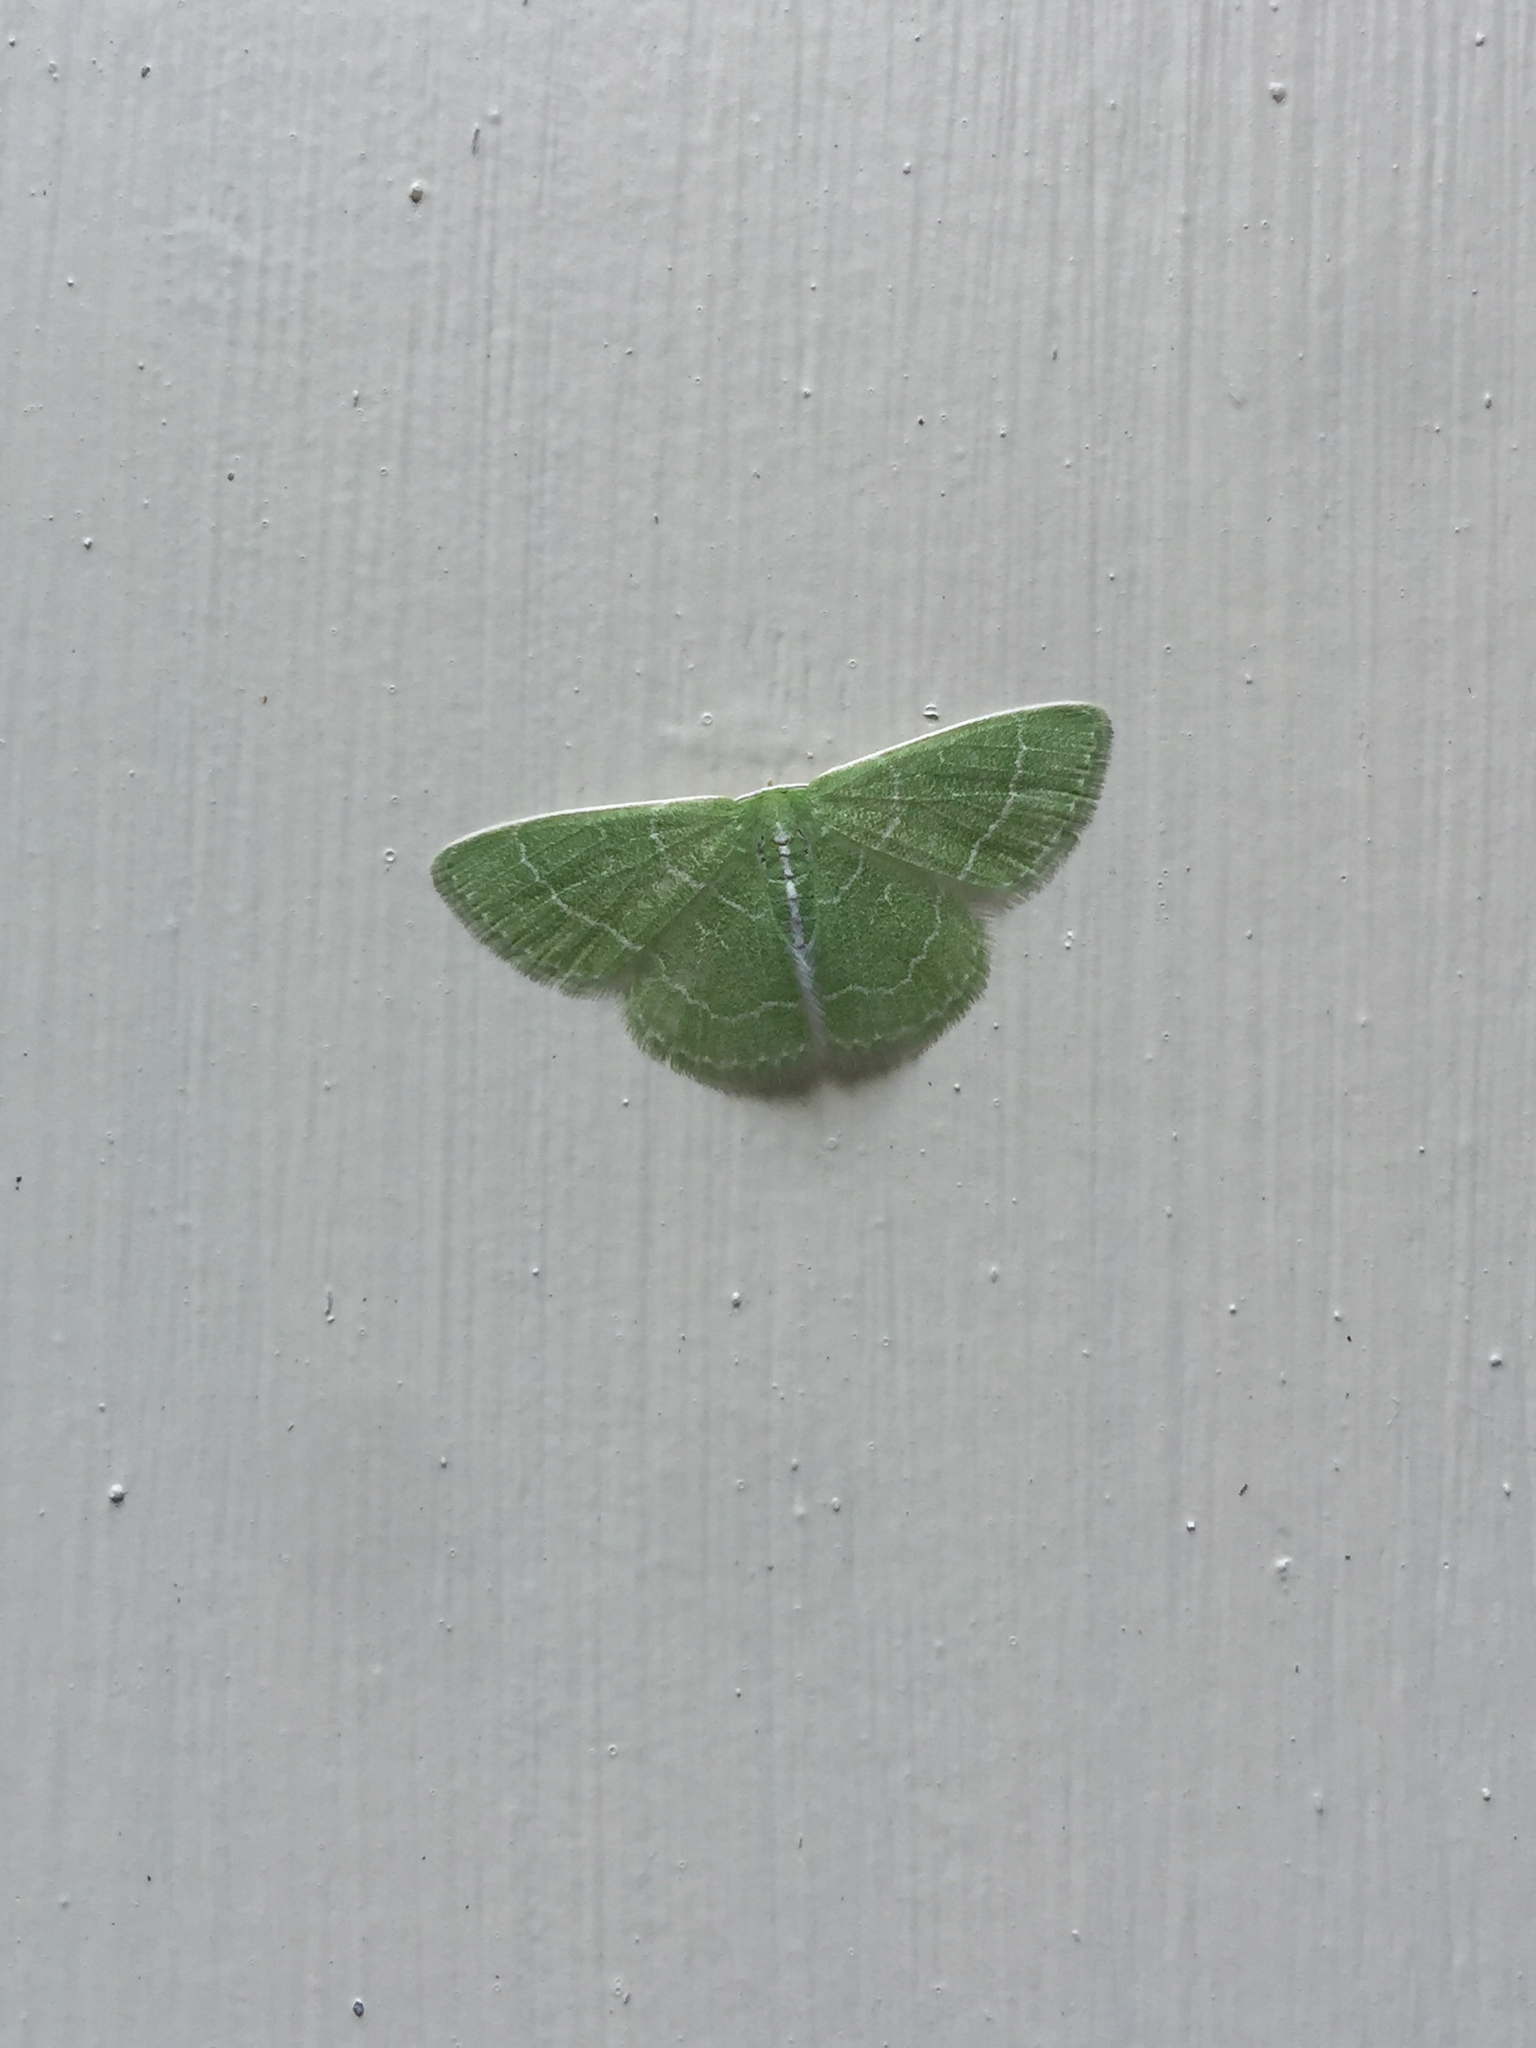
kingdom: Animalia
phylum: Arthropoda
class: Insecta
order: Lepidoptera
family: Geometridae
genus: Synchlora
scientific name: Synchlora aerata
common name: Wavy-lined emerald
